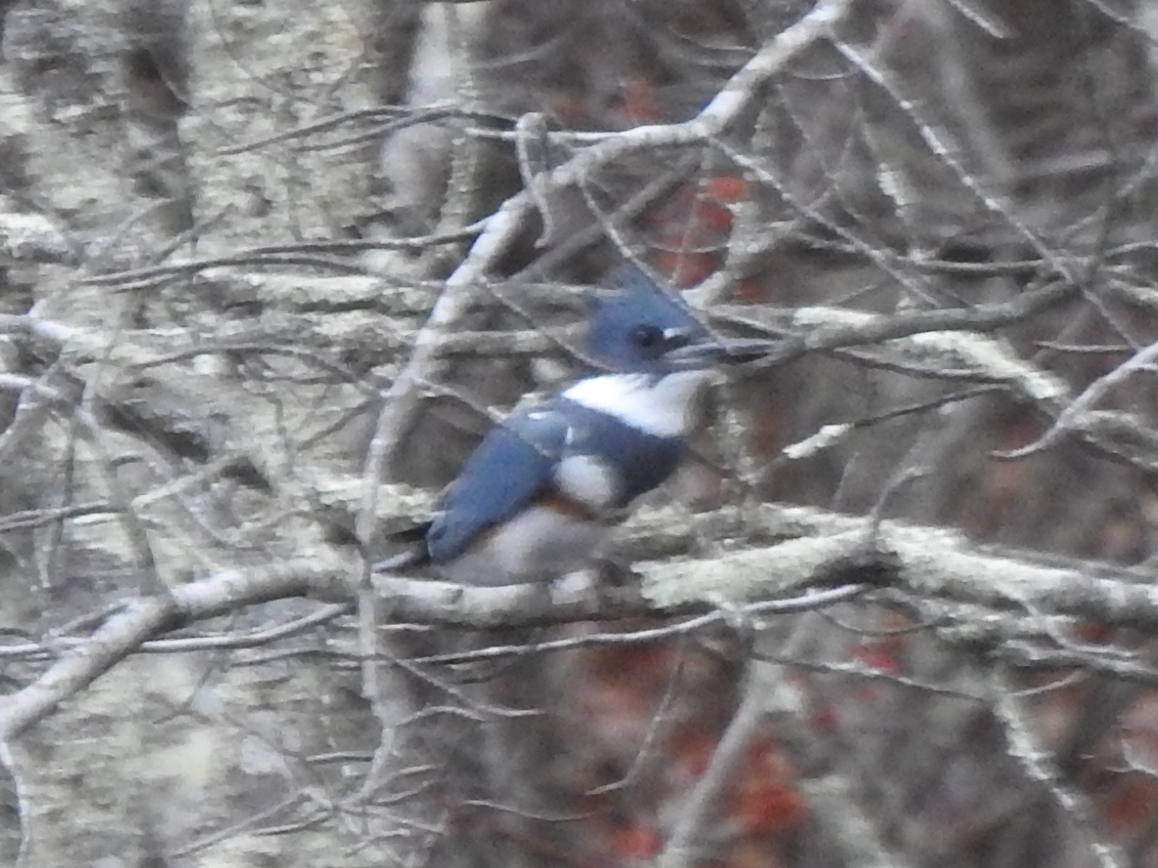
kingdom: Animalia
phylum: Chordata
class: Aves
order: Coraciiformes
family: Alcedinidae
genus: Megaceryle
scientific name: Megaceryle alcyon
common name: Belted kingfisher
